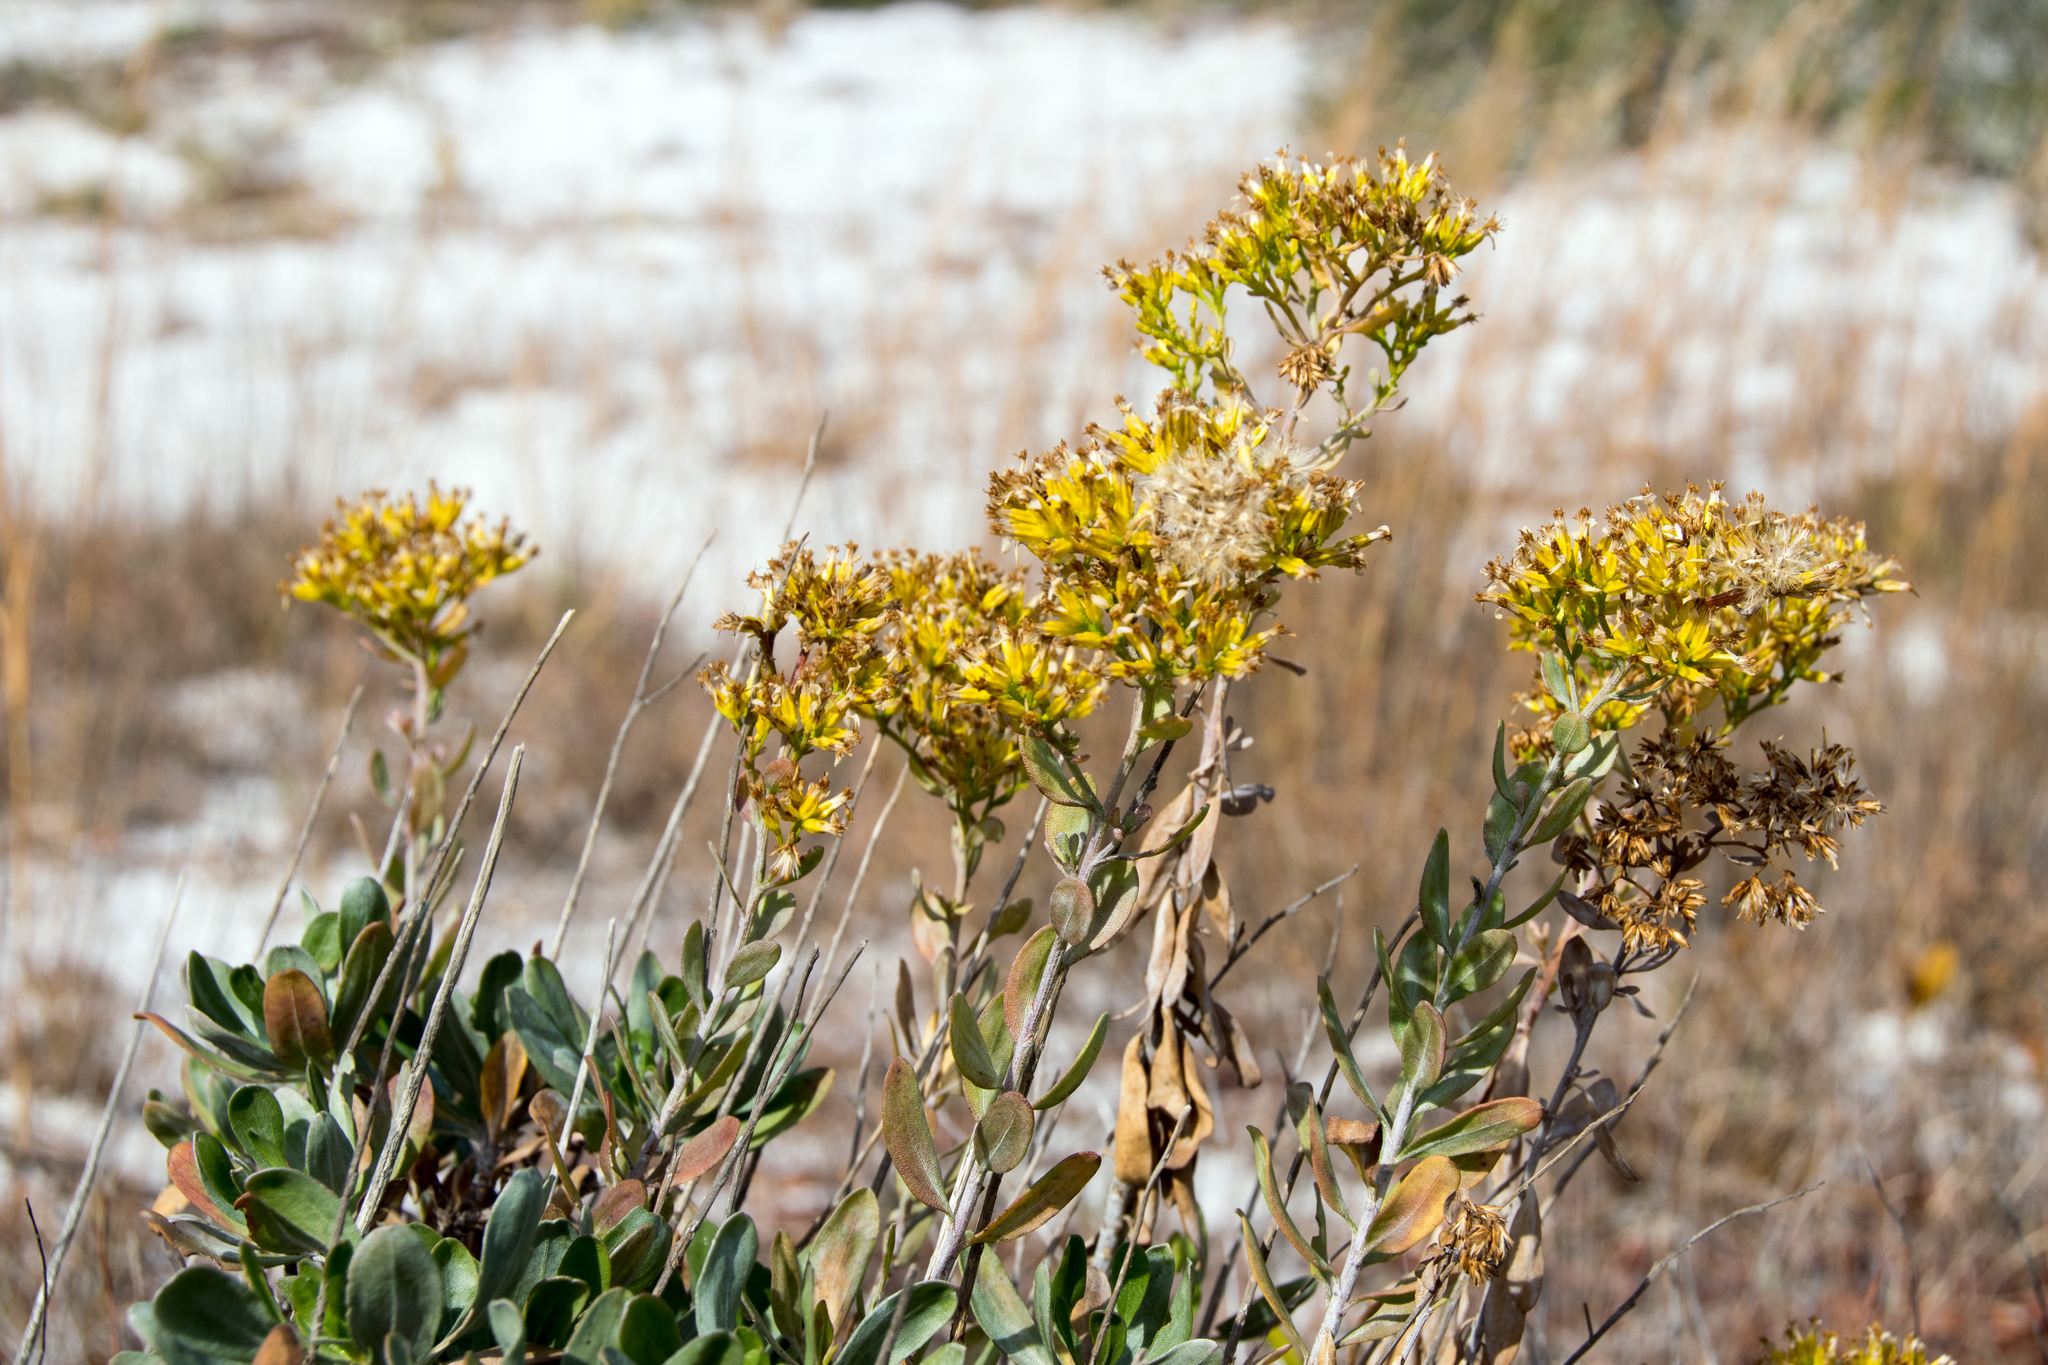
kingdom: Plantae
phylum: Tracheophyta
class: Magnoliopsida
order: Asterales
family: Asteraceae
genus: Chrysoma
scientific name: Chrysoma pauciflosculosa
